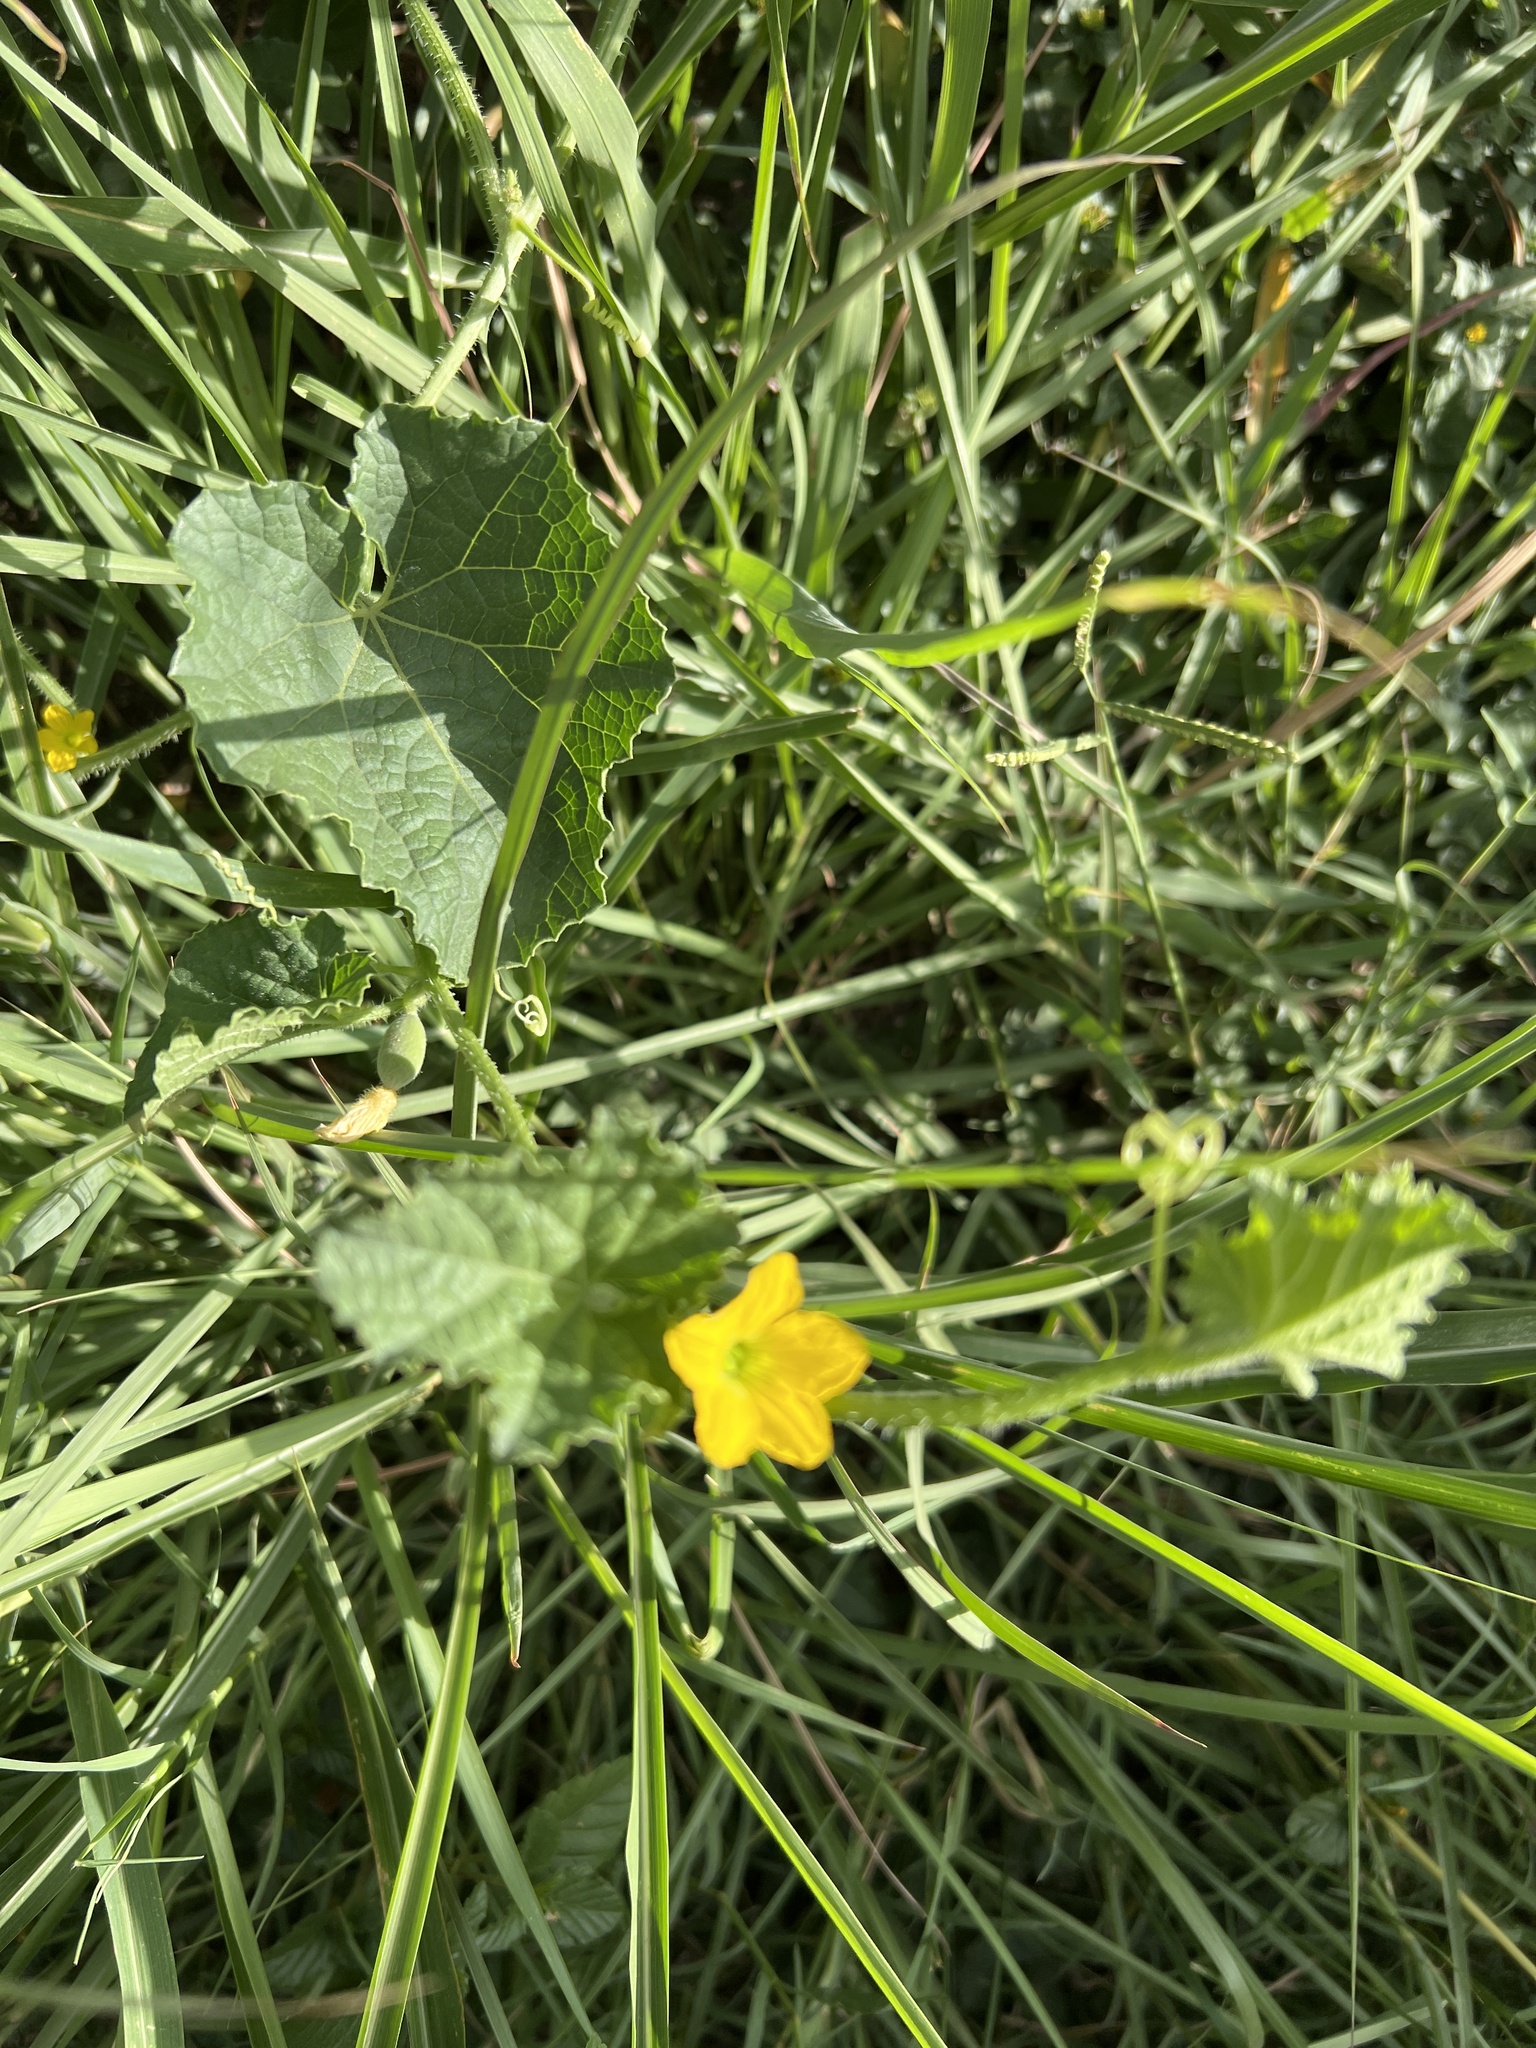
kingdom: Plantae
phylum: Tracheophyta
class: Magnoliopsida
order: Cucurbitales
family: Cucurbitaceae
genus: Cucumis
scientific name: Cucumis melo
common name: Melon
